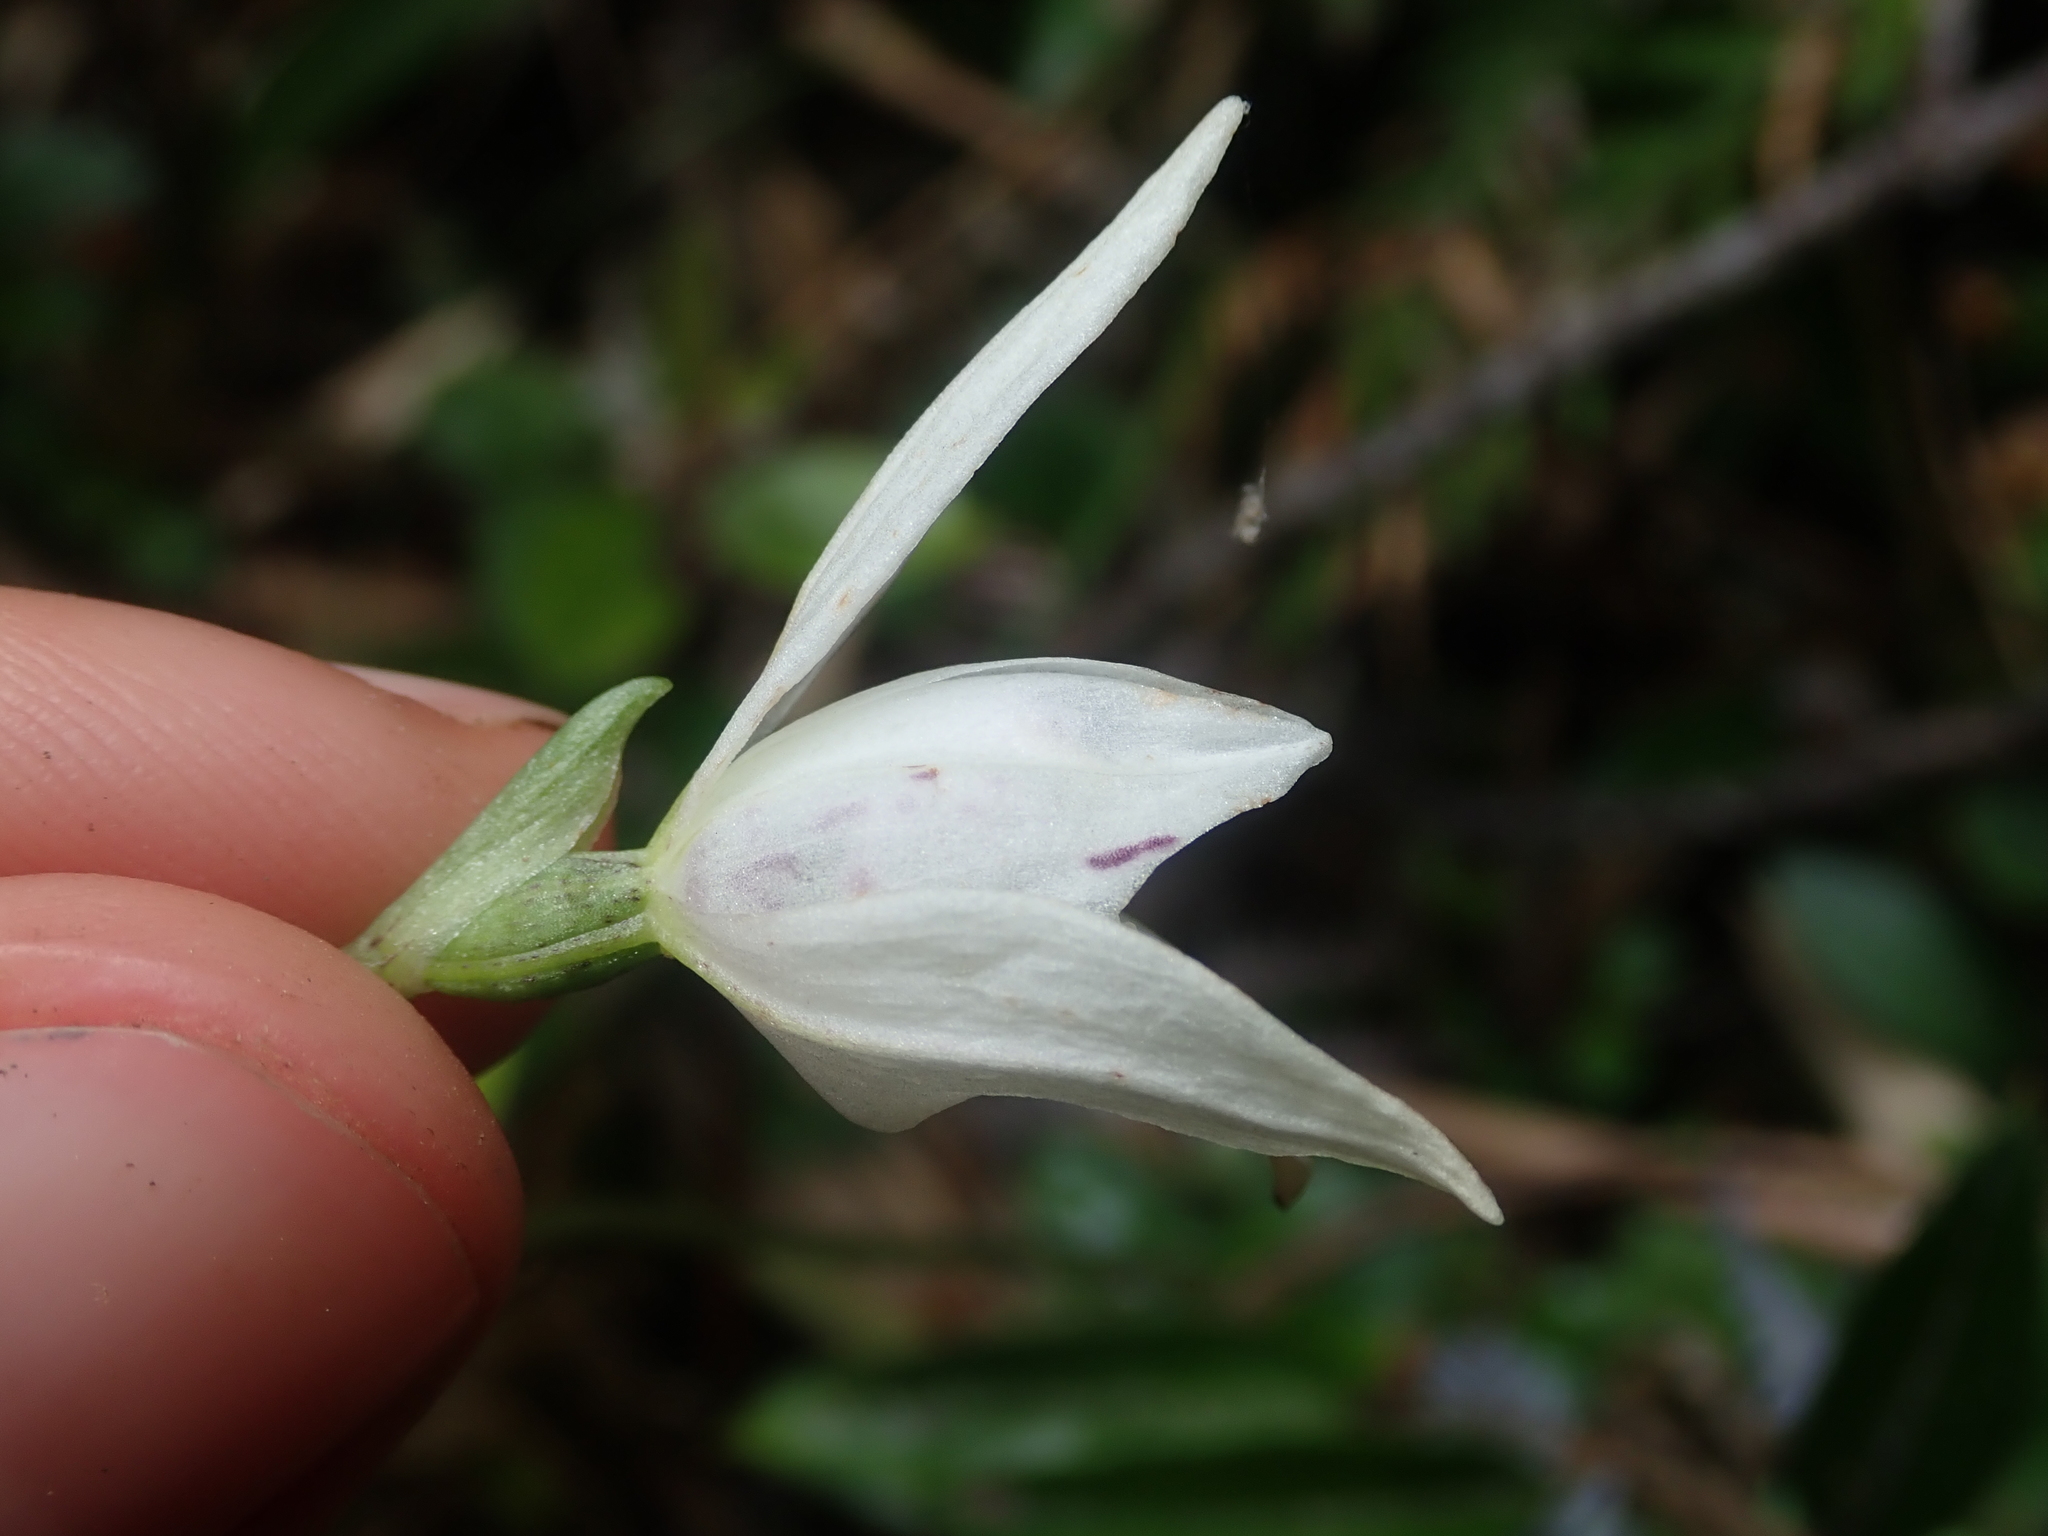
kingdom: Plantae
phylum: Tracheophyta
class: Liliopsida
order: Asparagales
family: Orchidaceae
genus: Codonorchis
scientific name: Codonorchis lessonii
